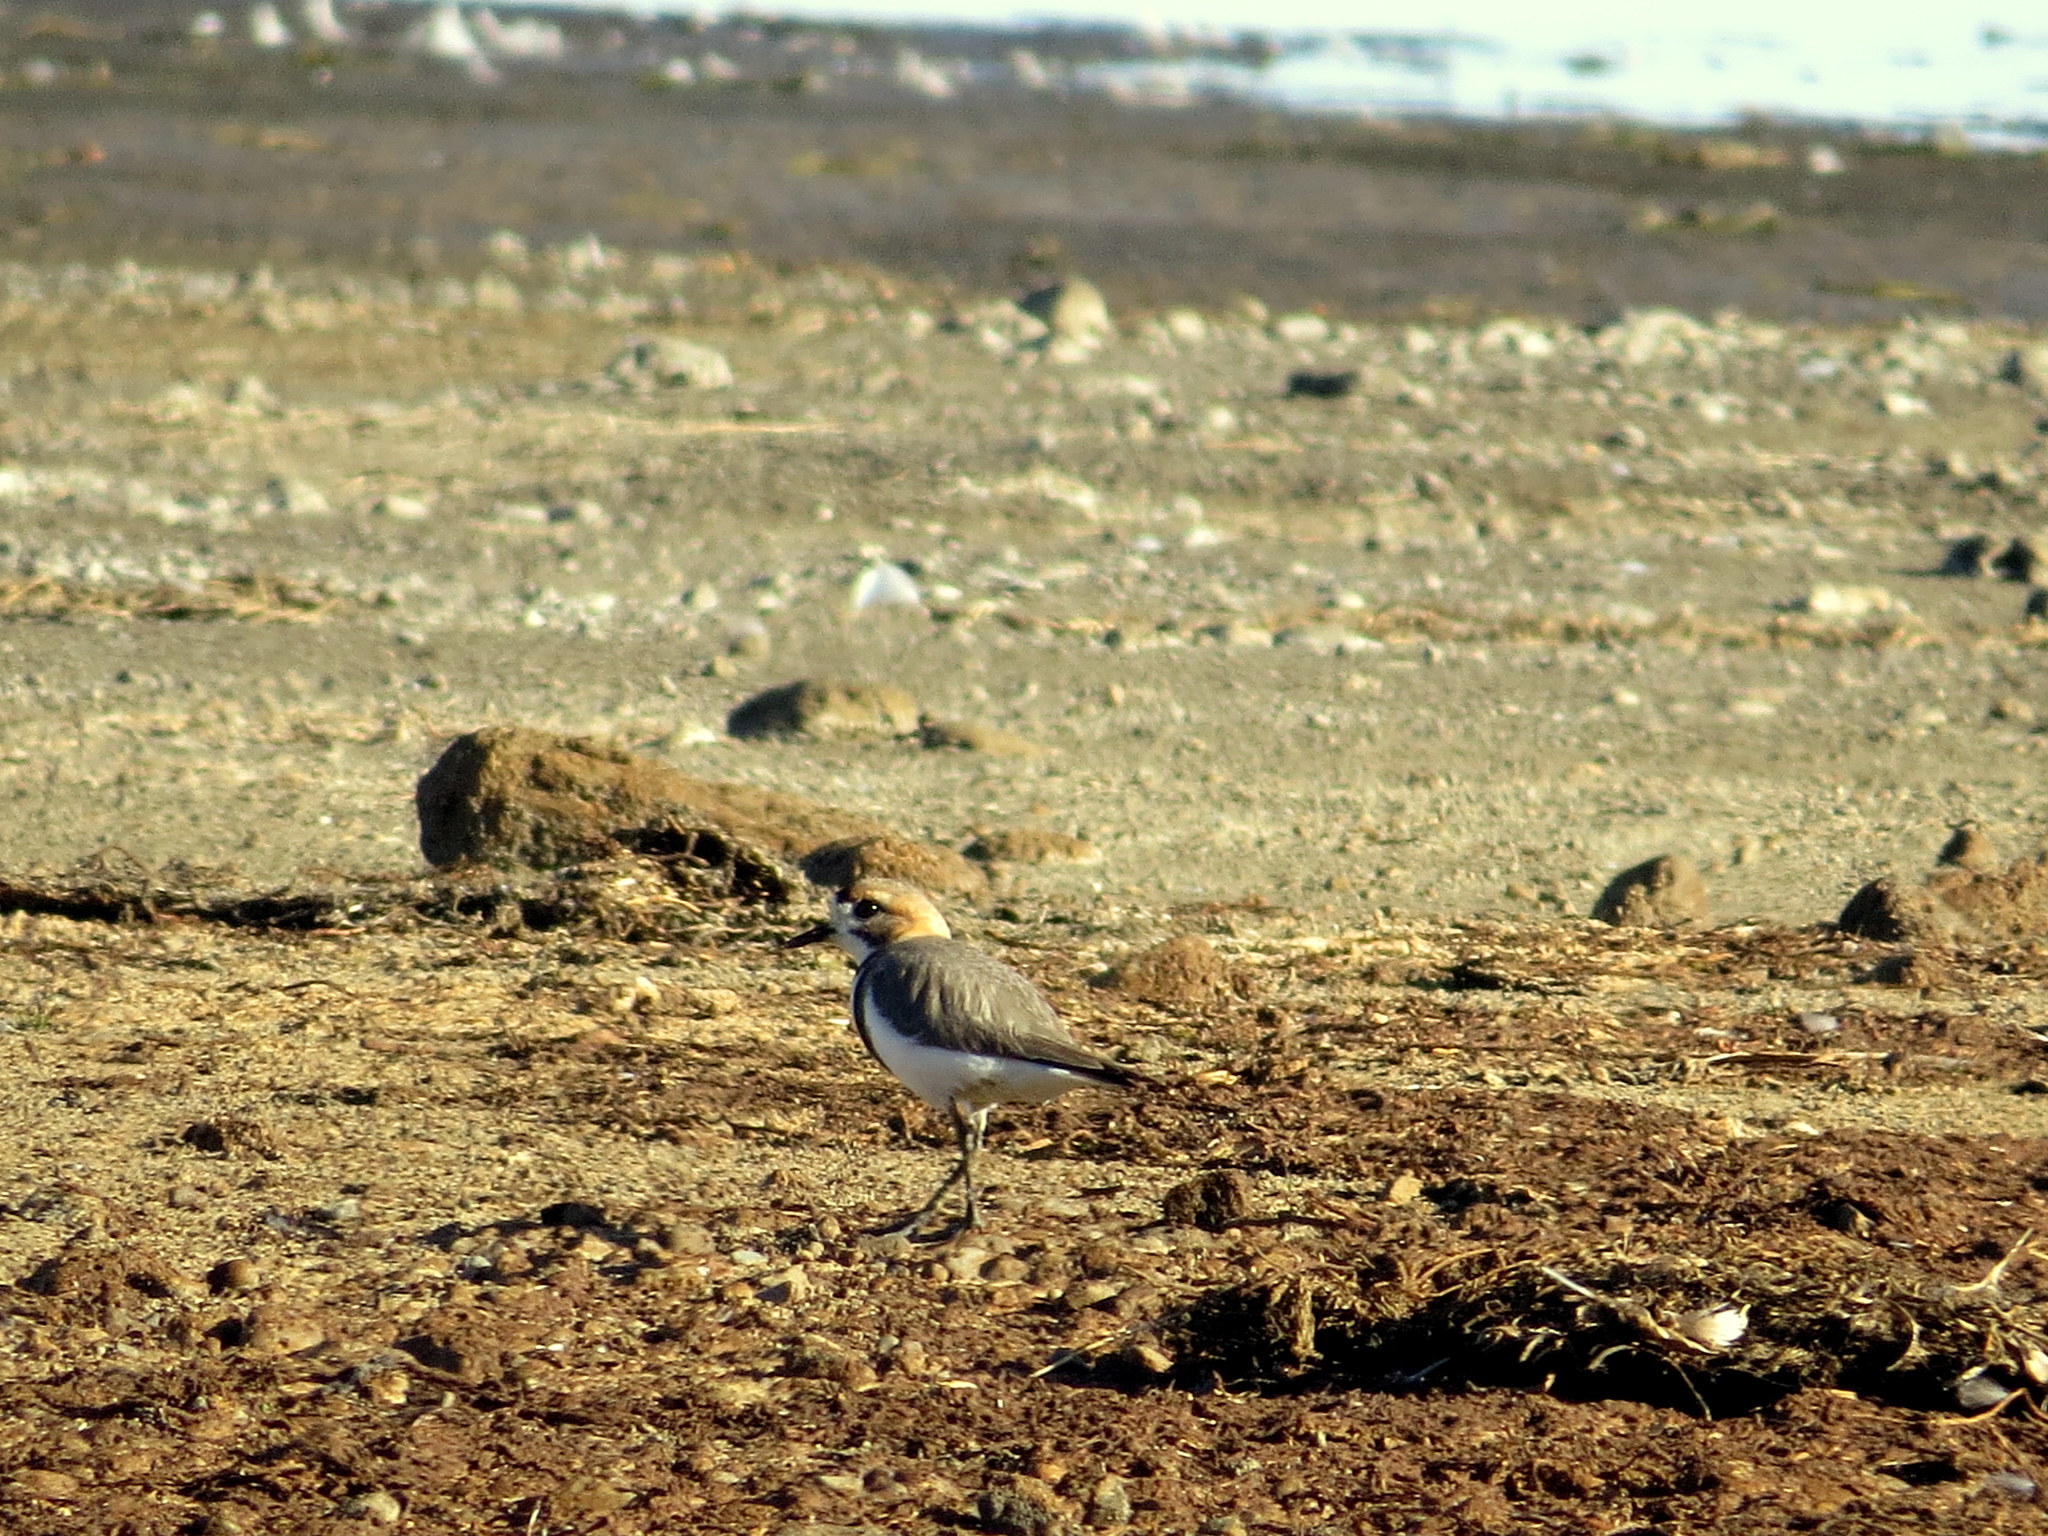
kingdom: Animalia
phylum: Chordata
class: Aves
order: Charadriiformes
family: Charadriidae
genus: Anarhynchus
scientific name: Anarhynchus
